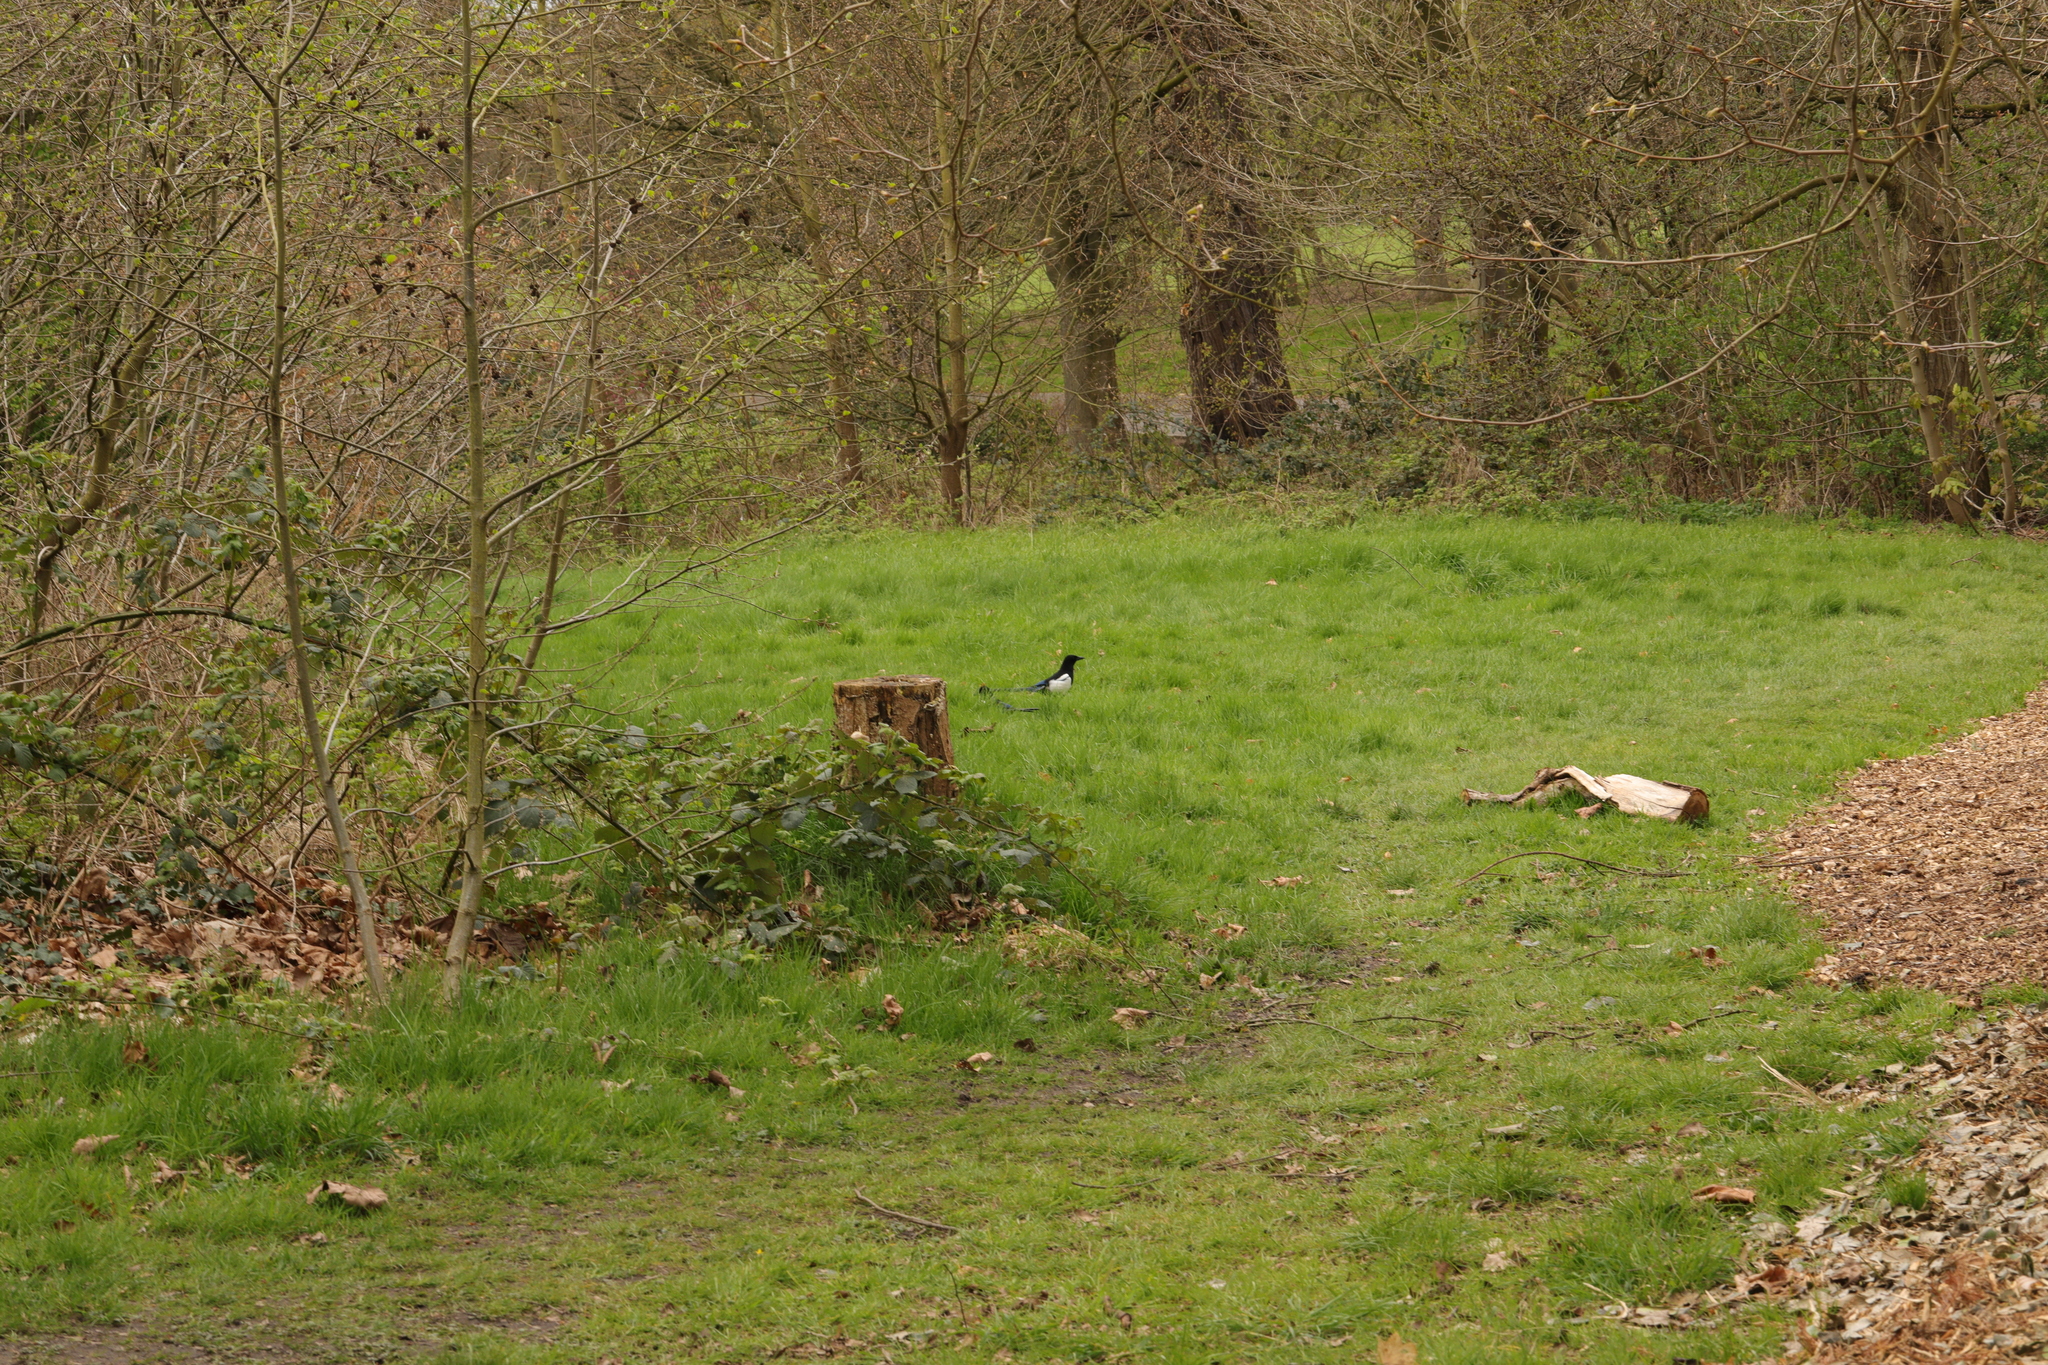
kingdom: Animalia
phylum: Chordata
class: Aves
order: Passeriformes
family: Corvidae
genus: Pica
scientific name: Pica pica
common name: Eurasian magpie
